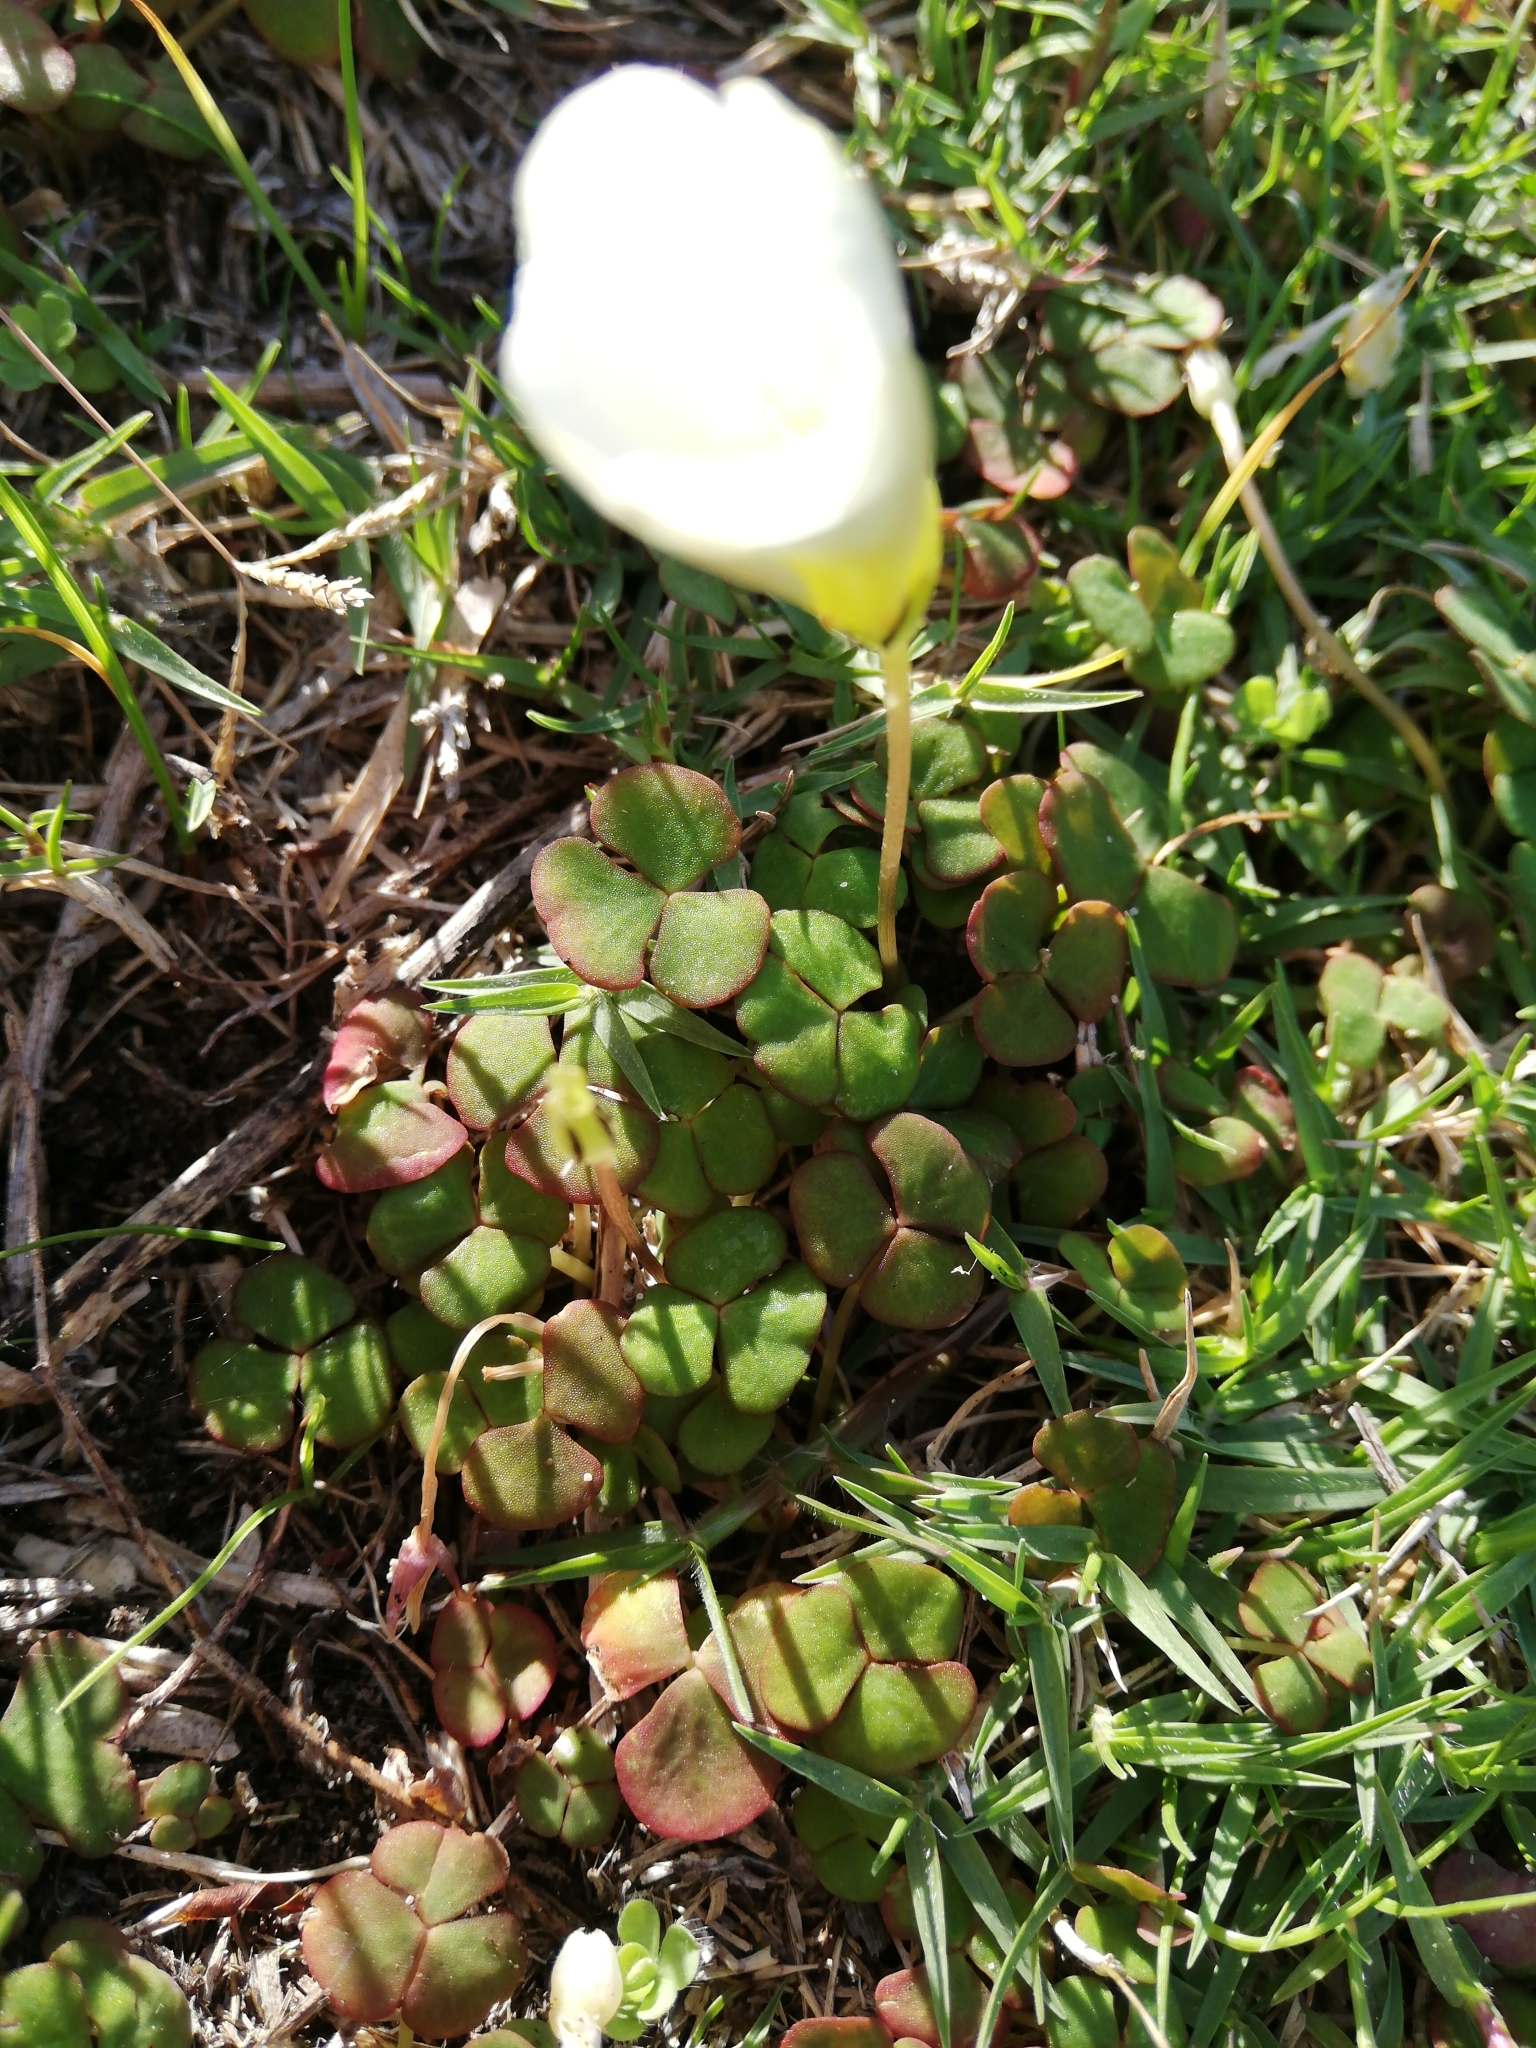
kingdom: Plantae
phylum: Tracheophyta
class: Magnoliopsida
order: Oxalidales
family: Oxalidaceae
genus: Oxalis
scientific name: Oxalis depressa
